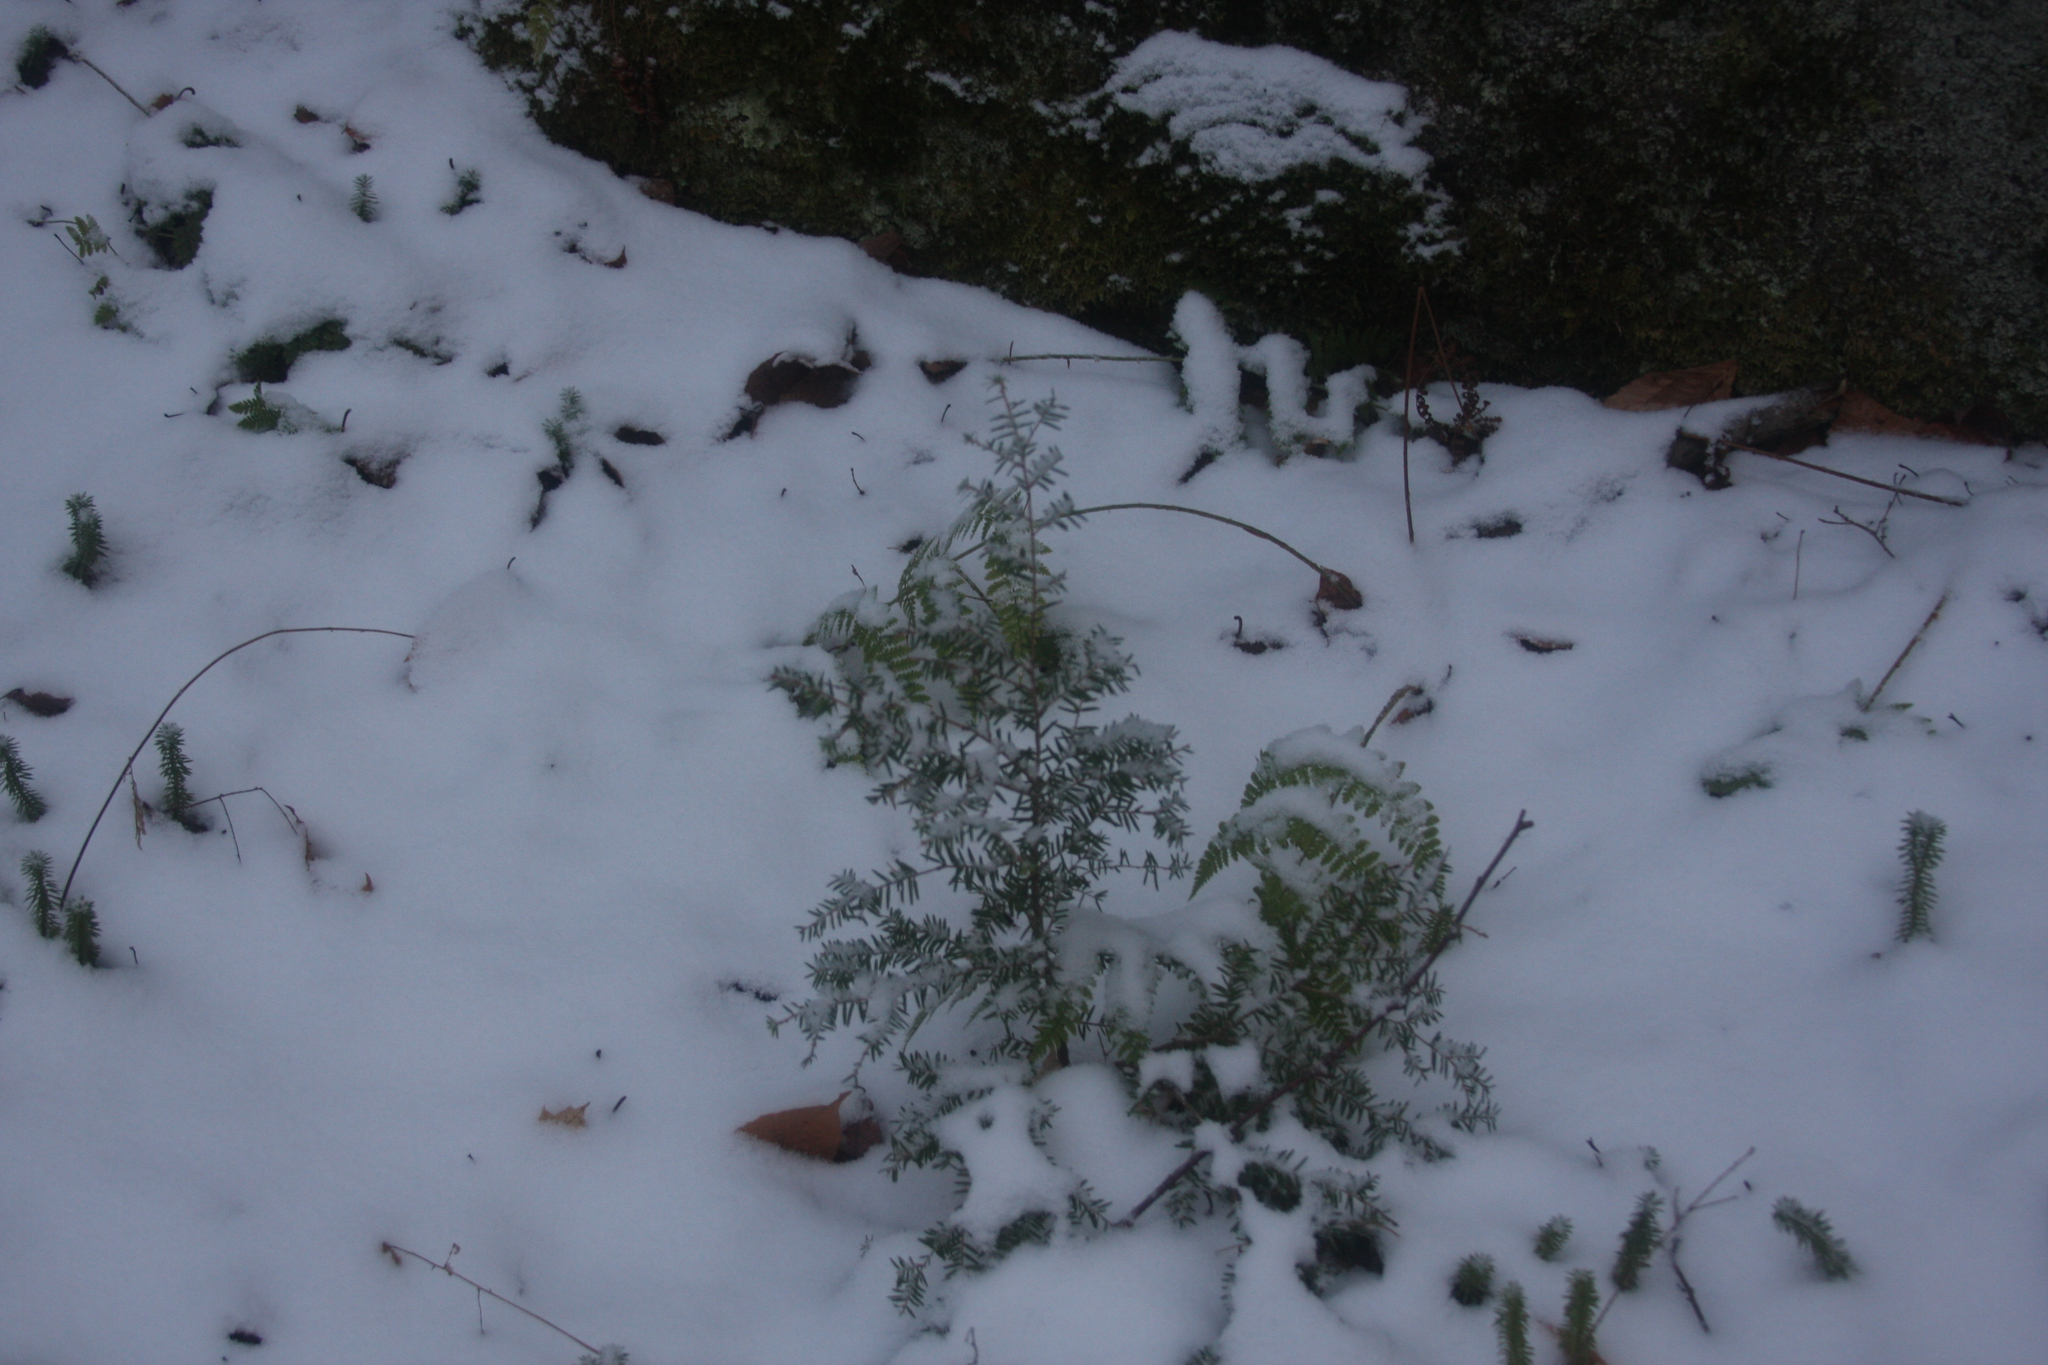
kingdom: Plantae
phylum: Tracheophyta
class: Pinopsida
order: Pinales
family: Pinaceae
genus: Tsuga
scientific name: Tsuga canadensis
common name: Eastern hemlock
